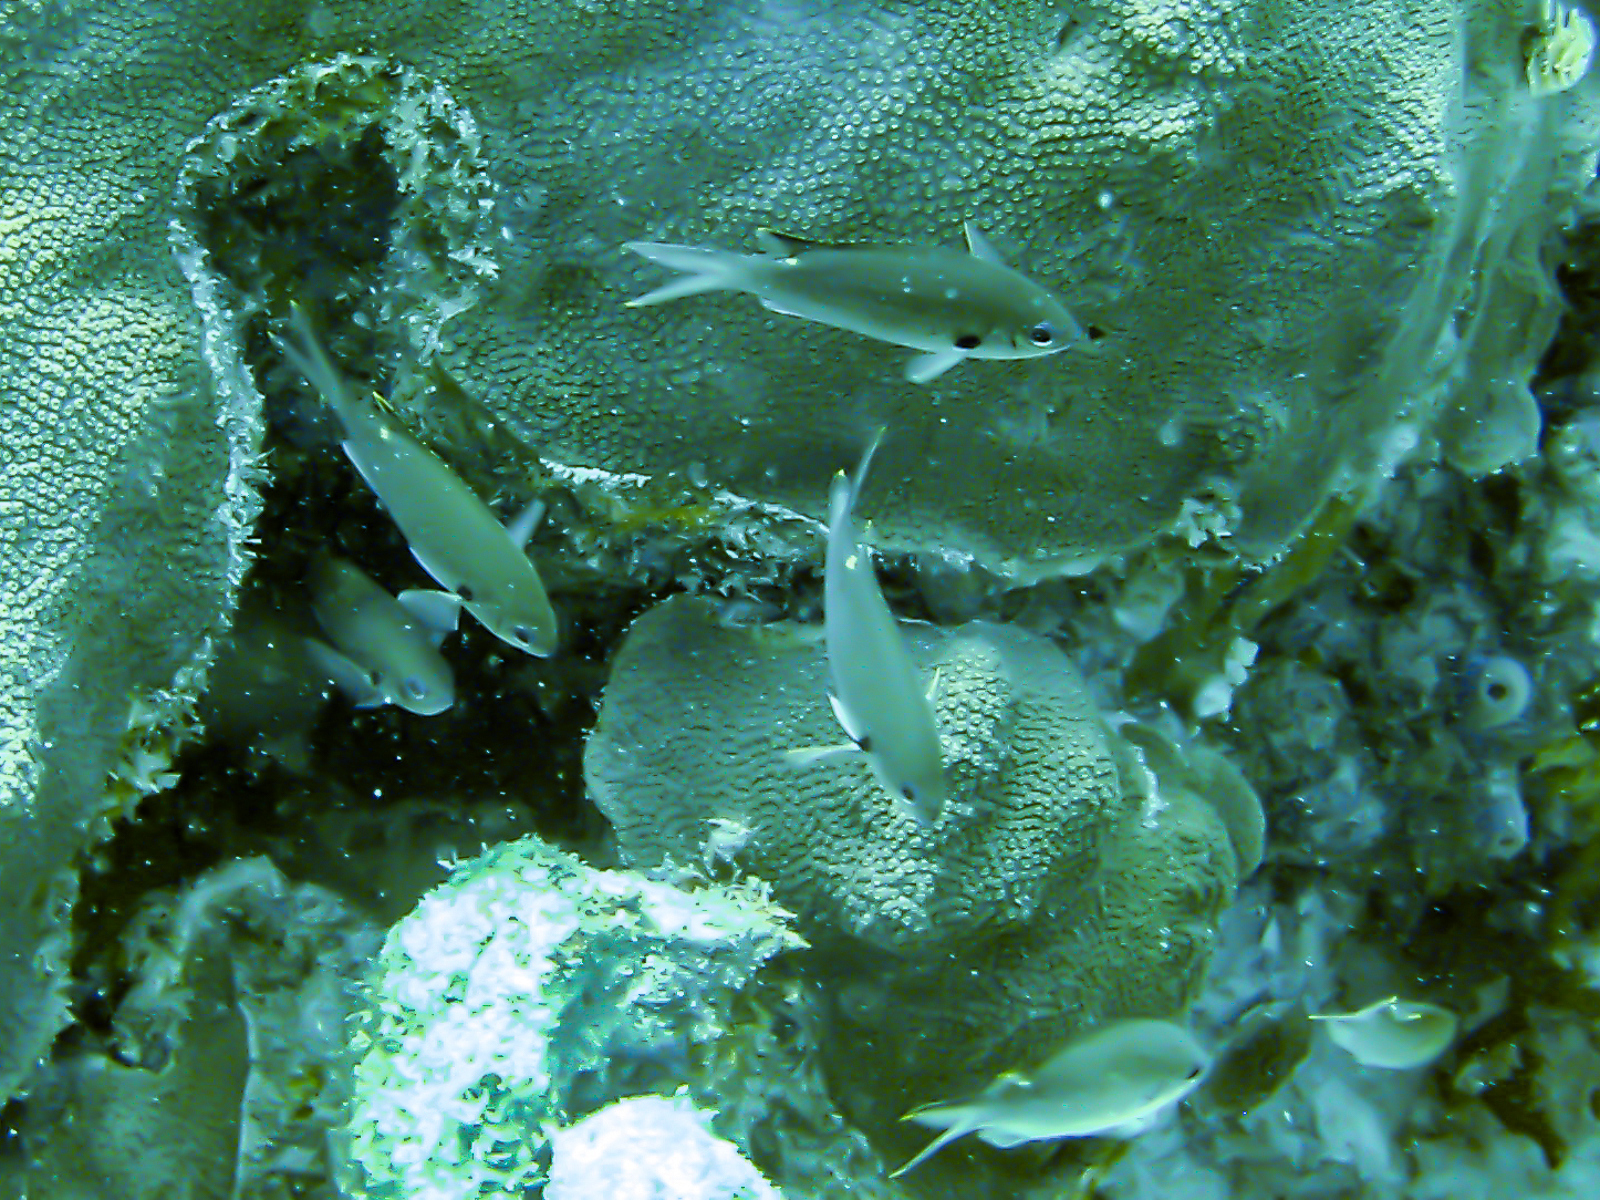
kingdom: Animalia
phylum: Chordata
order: Perciformes
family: Pomacentridae
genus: Chromis
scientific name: Chromis multilineata
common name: Brown chromis
